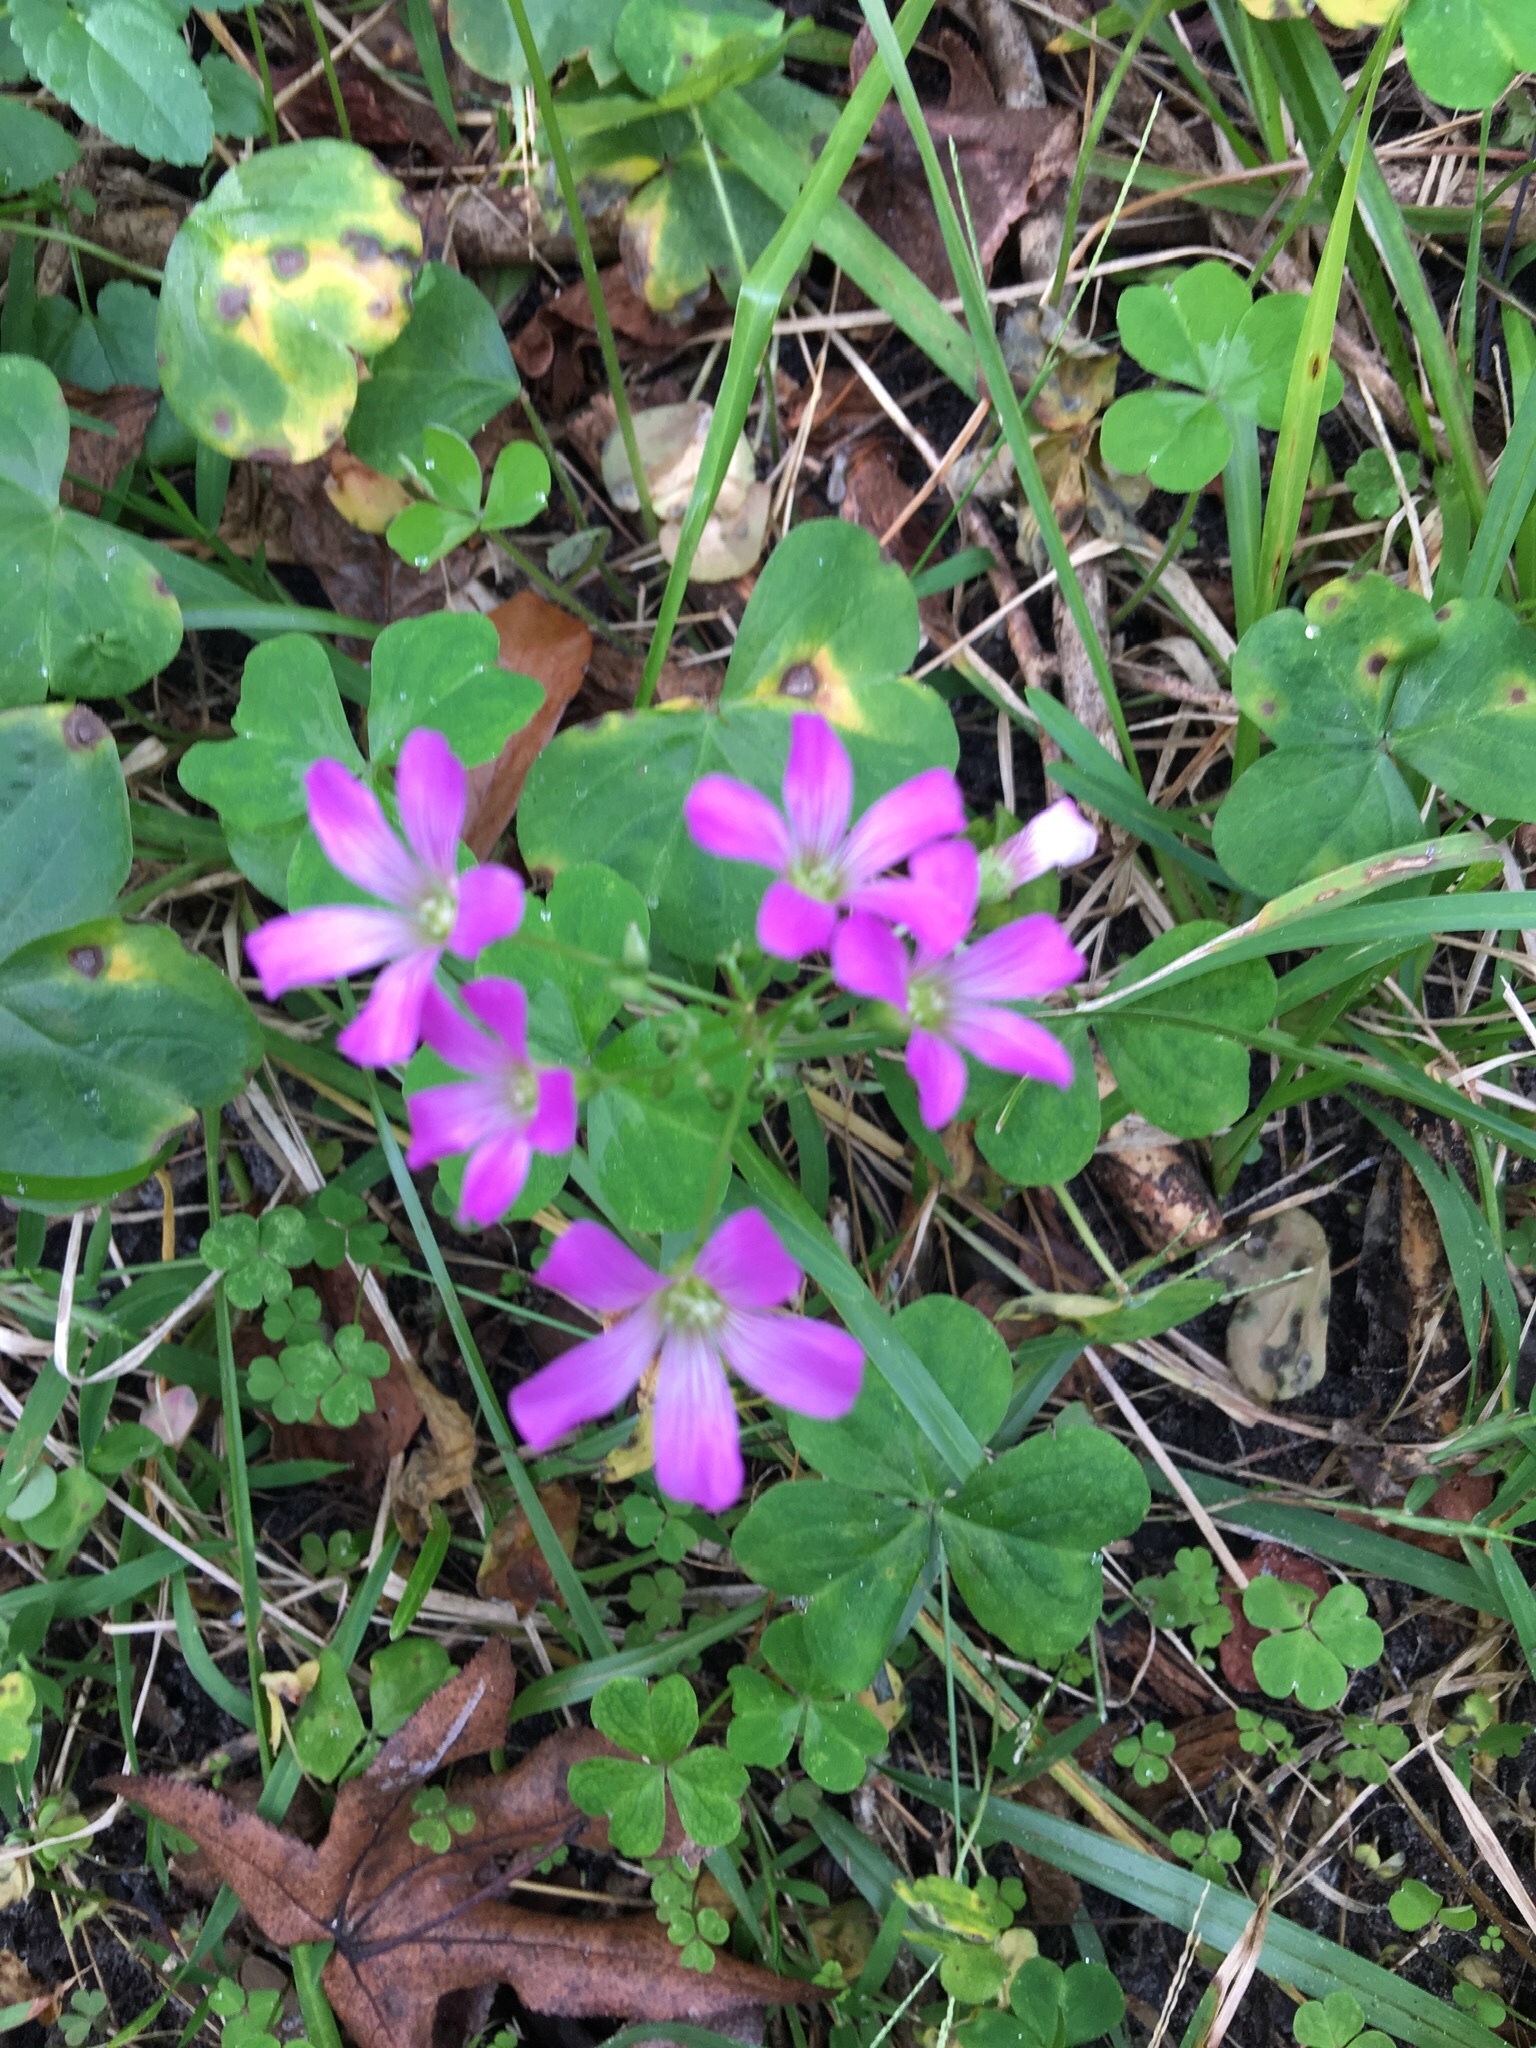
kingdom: Plantae
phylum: Tracheophyta
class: Magnoliopsida
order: Oxalidales
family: Oxalidaceae
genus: Oxalis
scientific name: Oxalis debilis
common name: Large-flowered pink-sorrel
